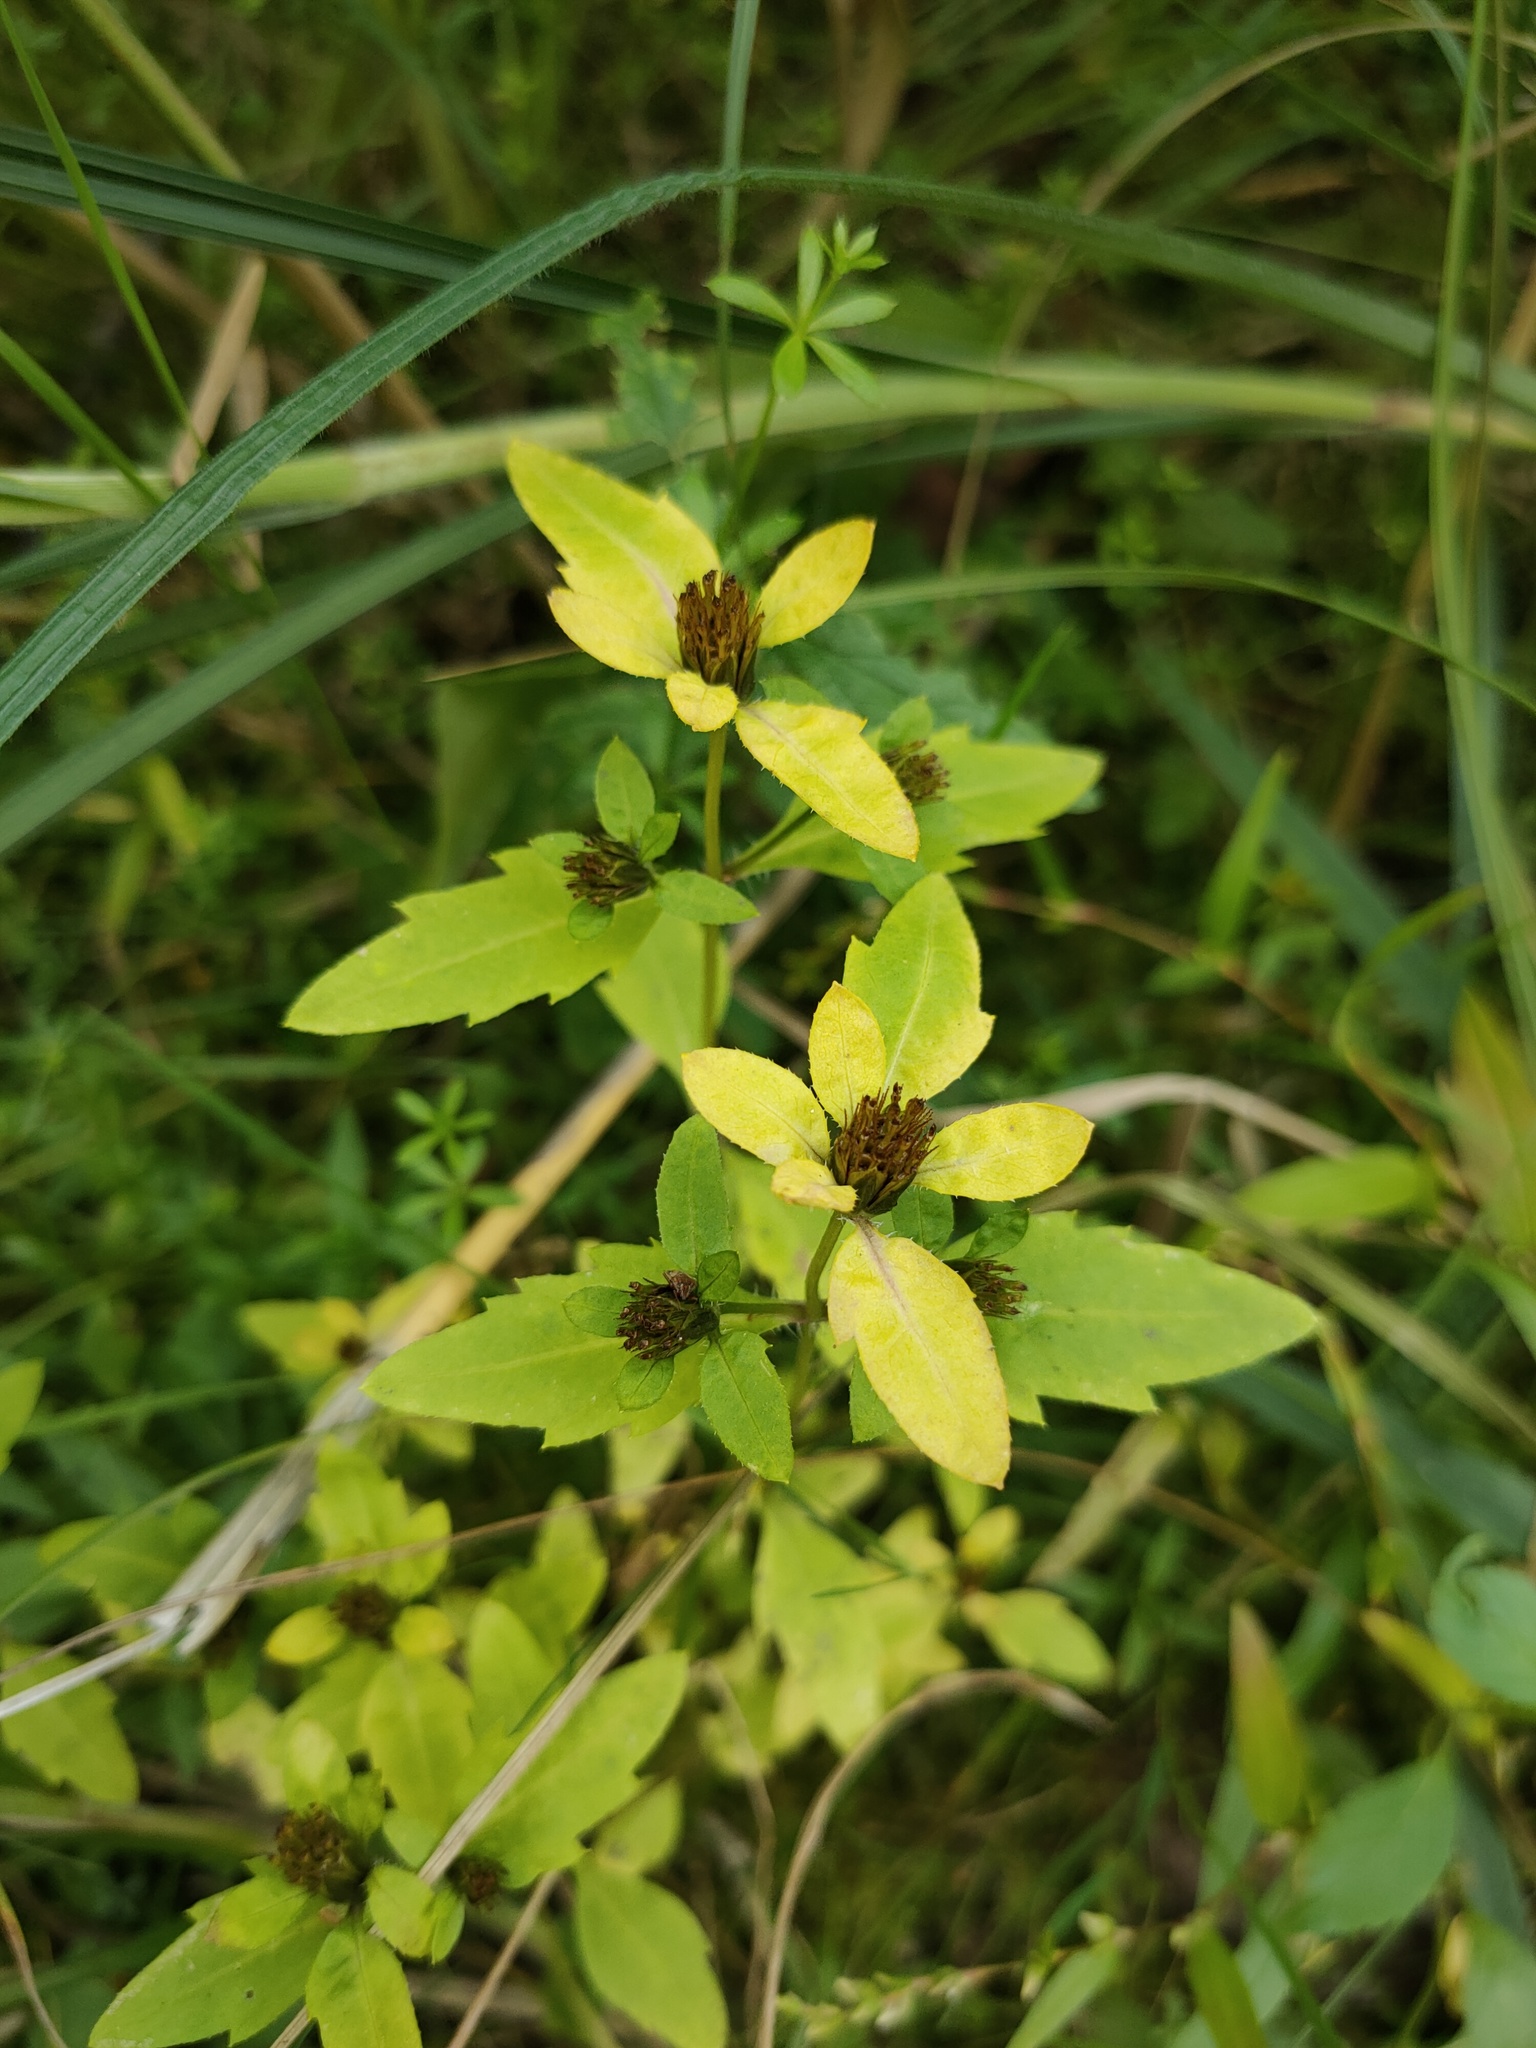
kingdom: Plantae
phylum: Tracheophyta
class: Magnoliopsida
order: Asterales
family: Asteraceae
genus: Bidens
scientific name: Bidens tripartita
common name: Trifid bur-marigold
